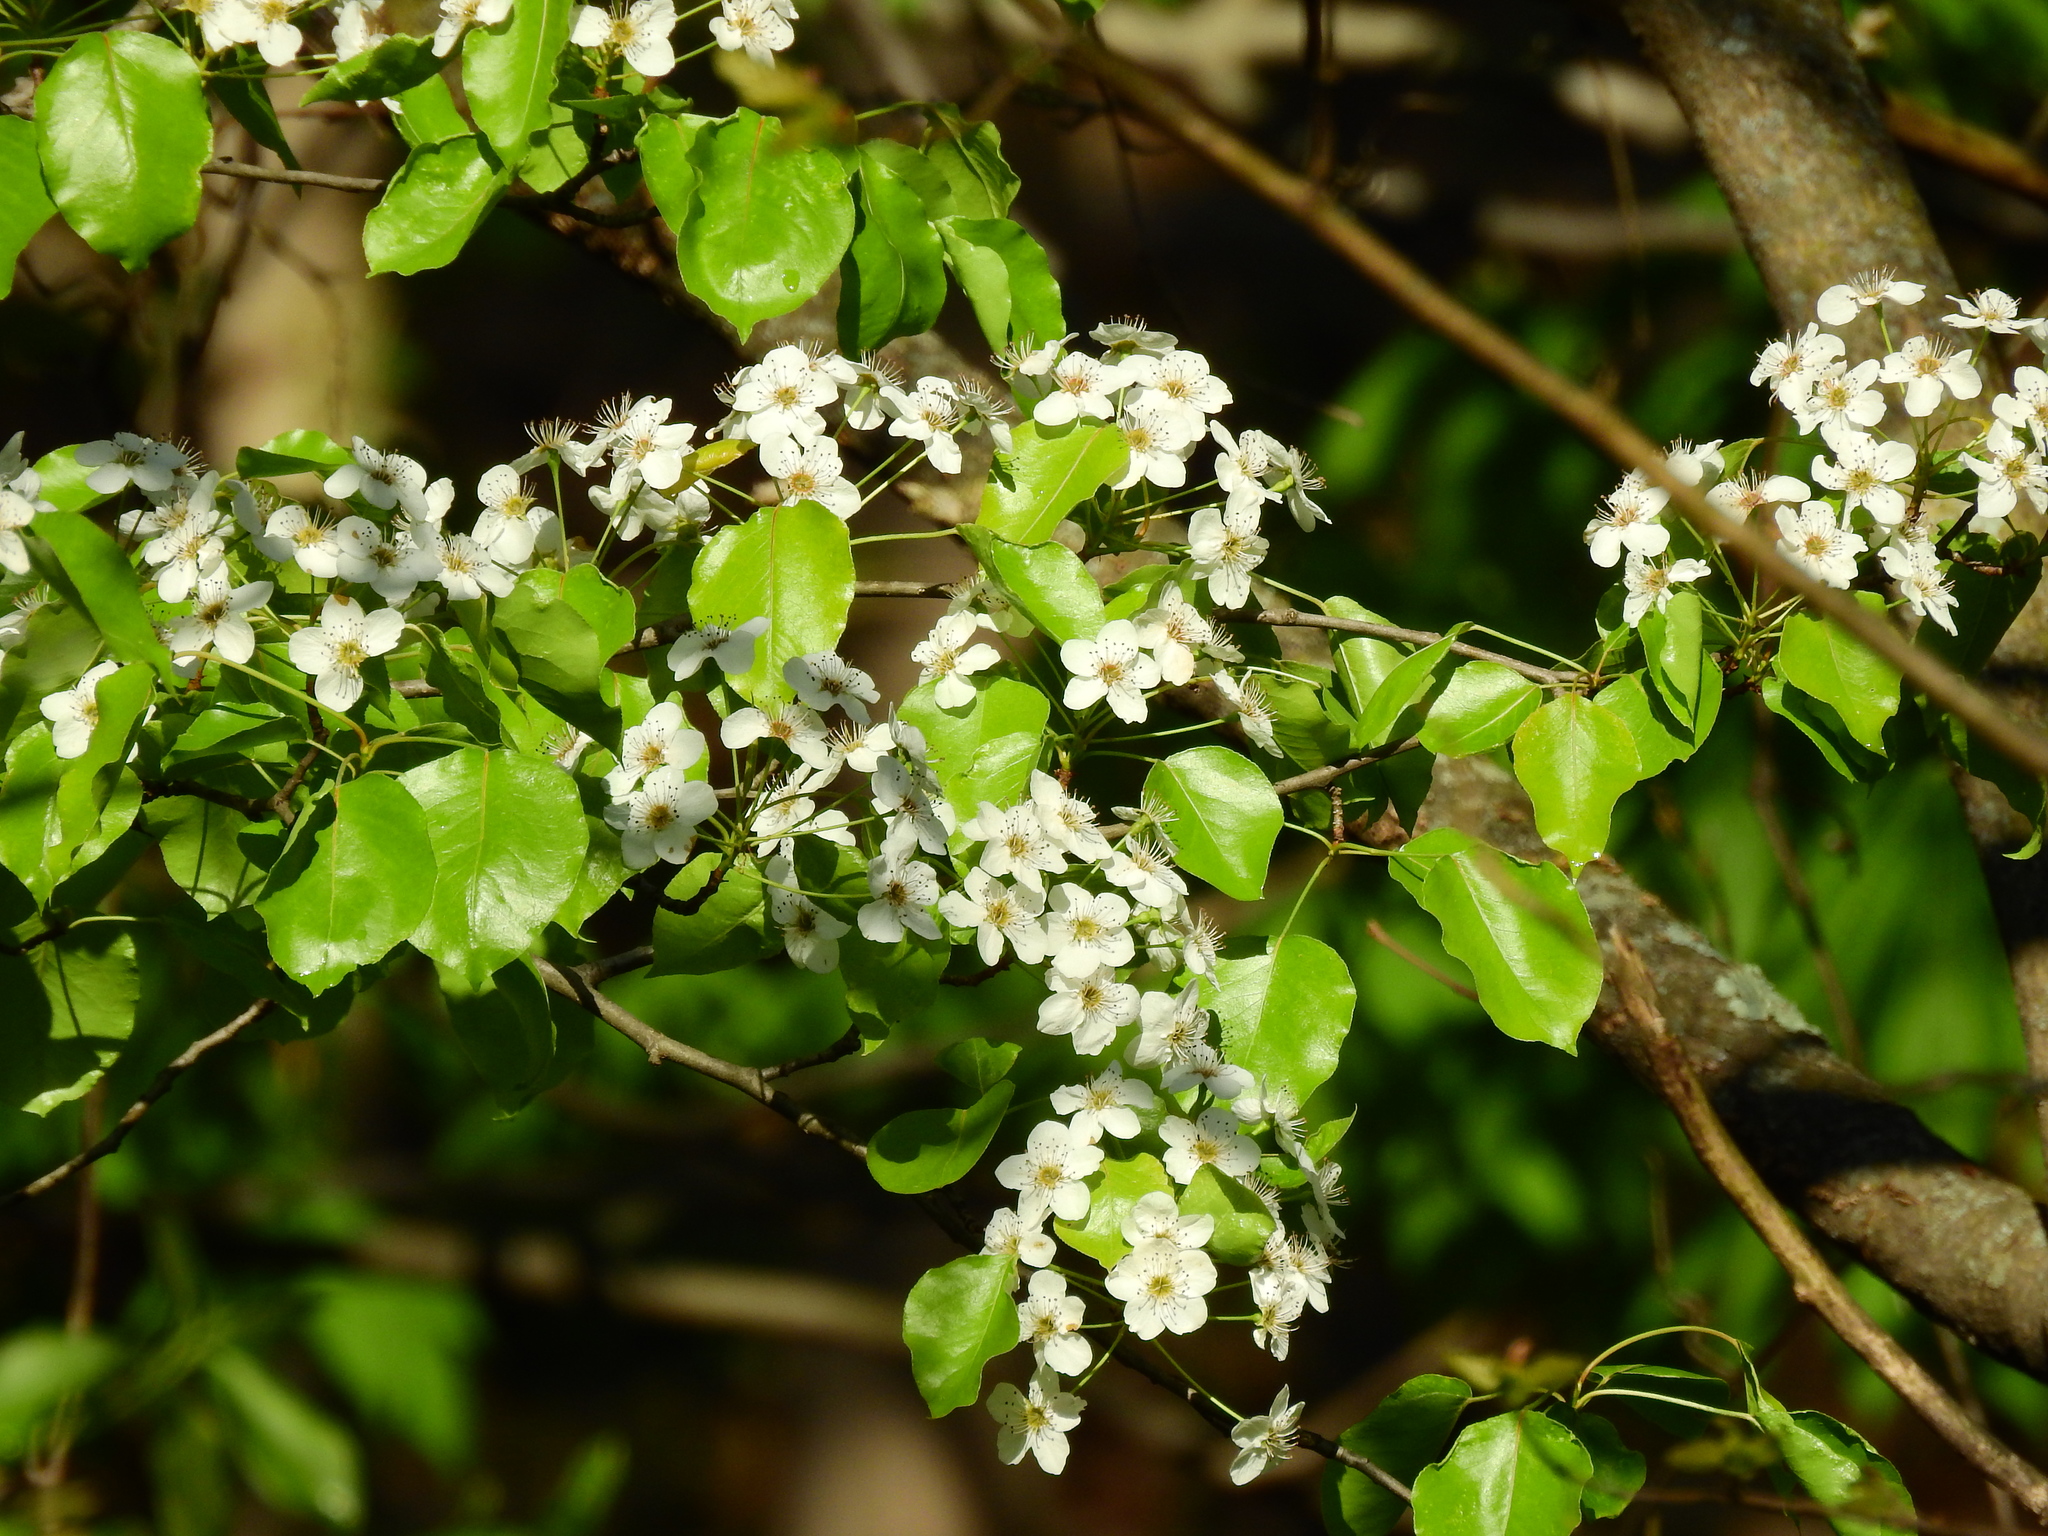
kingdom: Plantae
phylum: Tracheophyta
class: Magnoliopsida
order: Rosales
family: Rosaceae
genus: Pyrus
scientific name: Pyrus calleryana
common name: Callery pear
